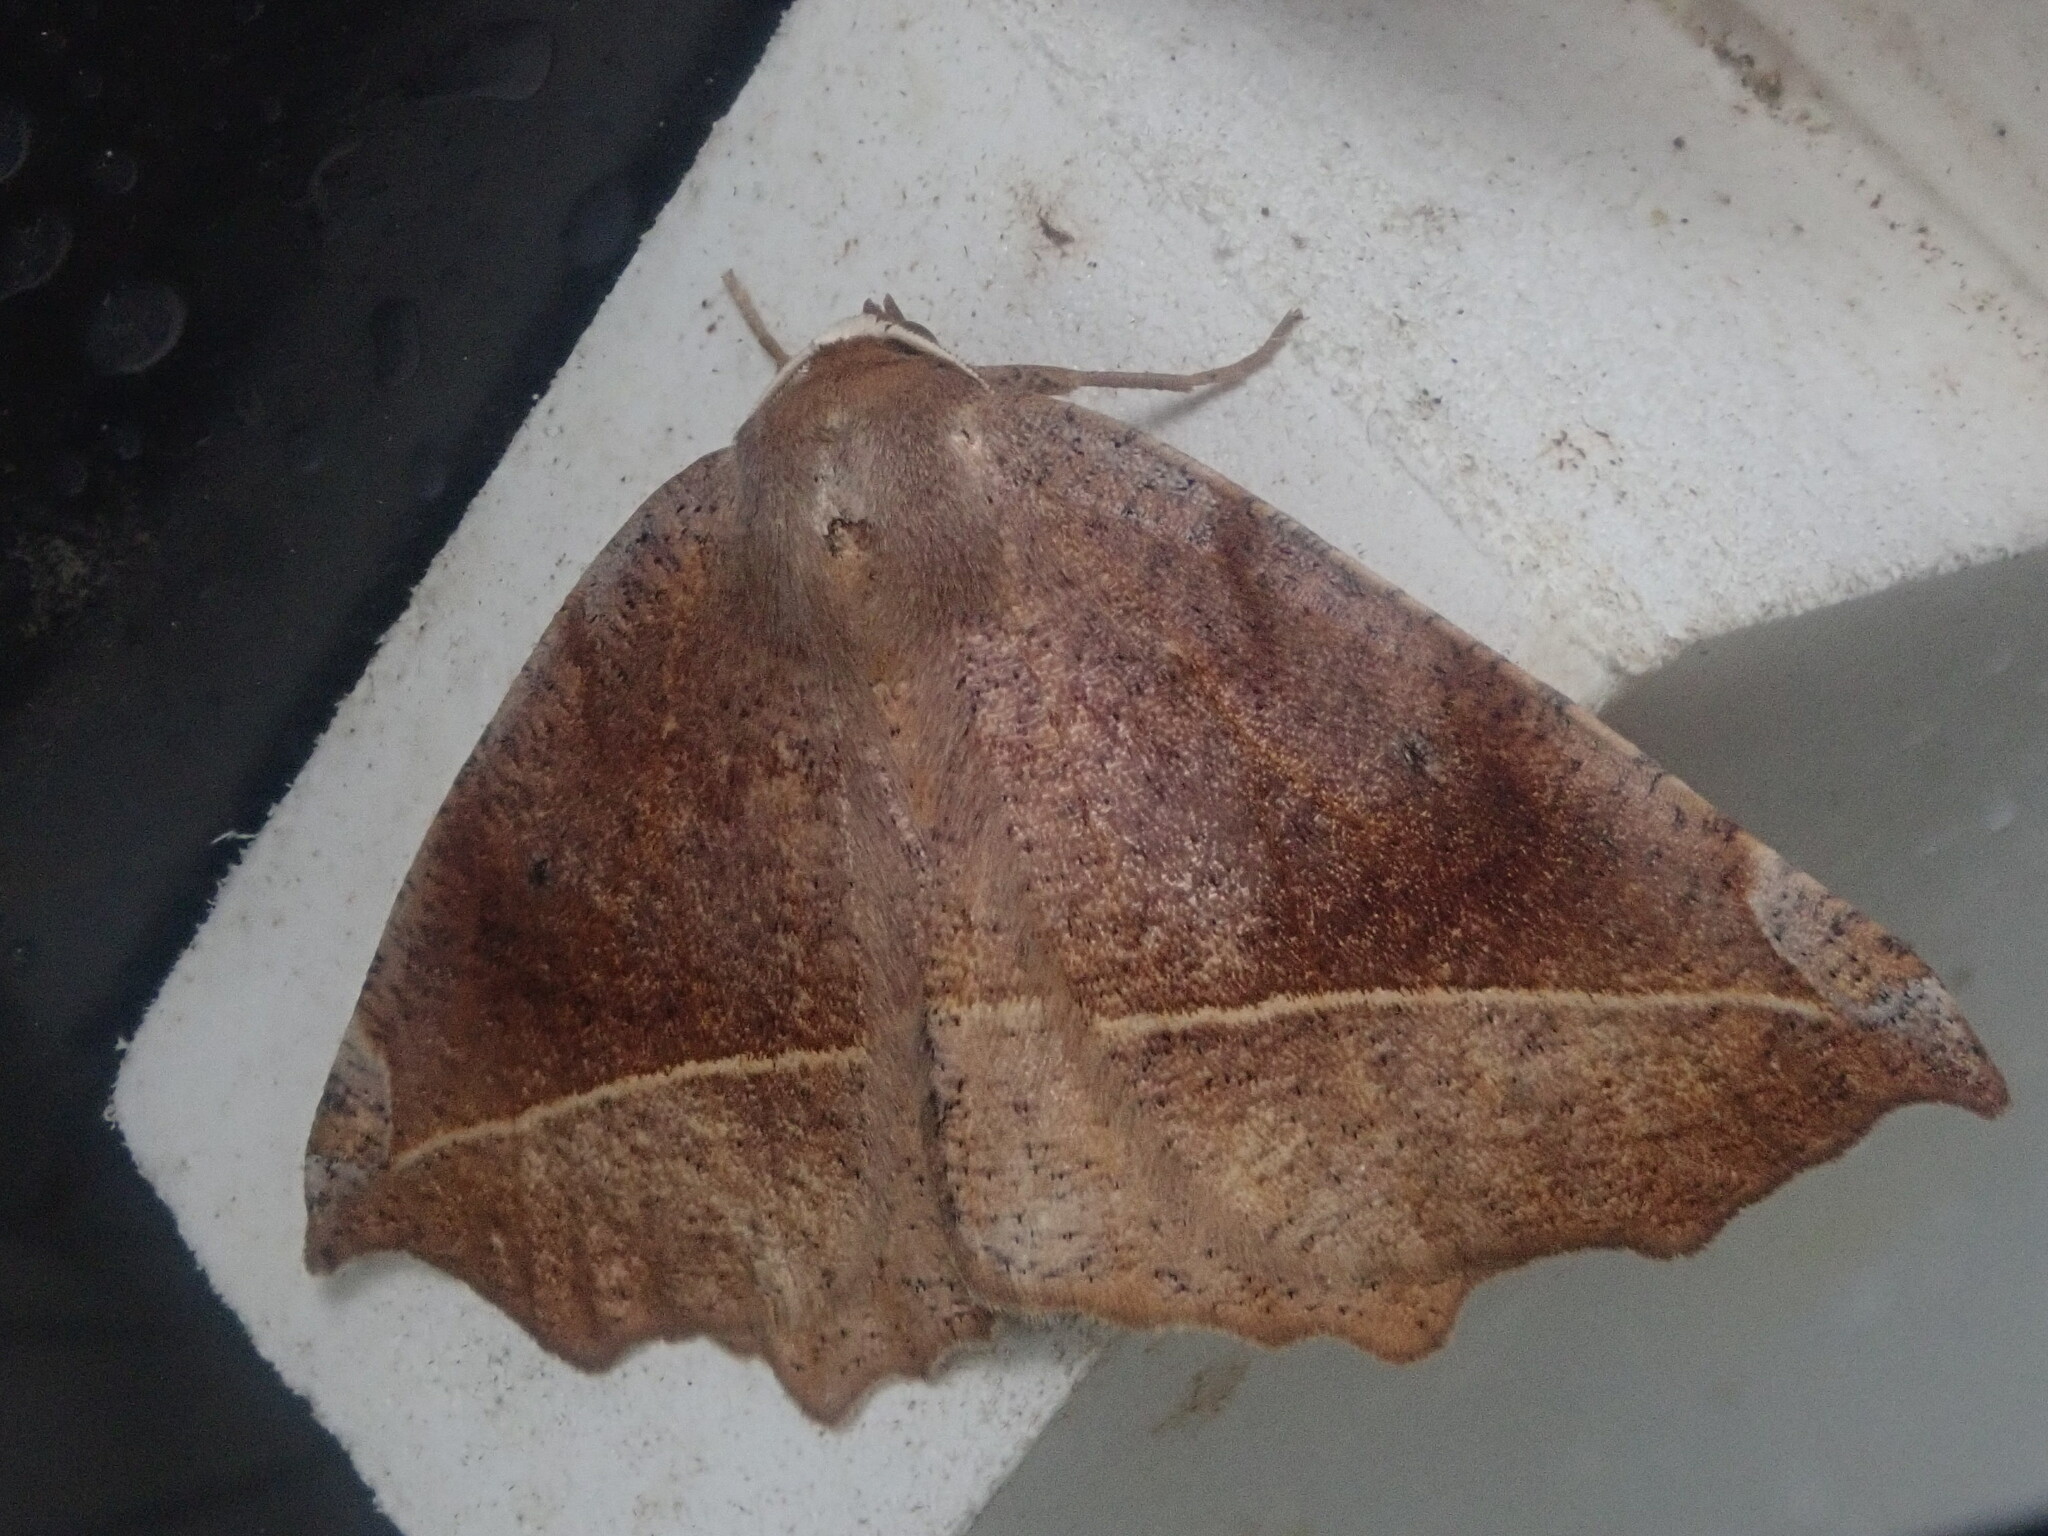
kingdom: Animalia
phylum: Arthropoda
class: Insecta
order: Lepidoptera
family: Geometridae
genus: Eutrapela
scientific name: Eutrapela clemataria
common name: Curved-toothed geometer
